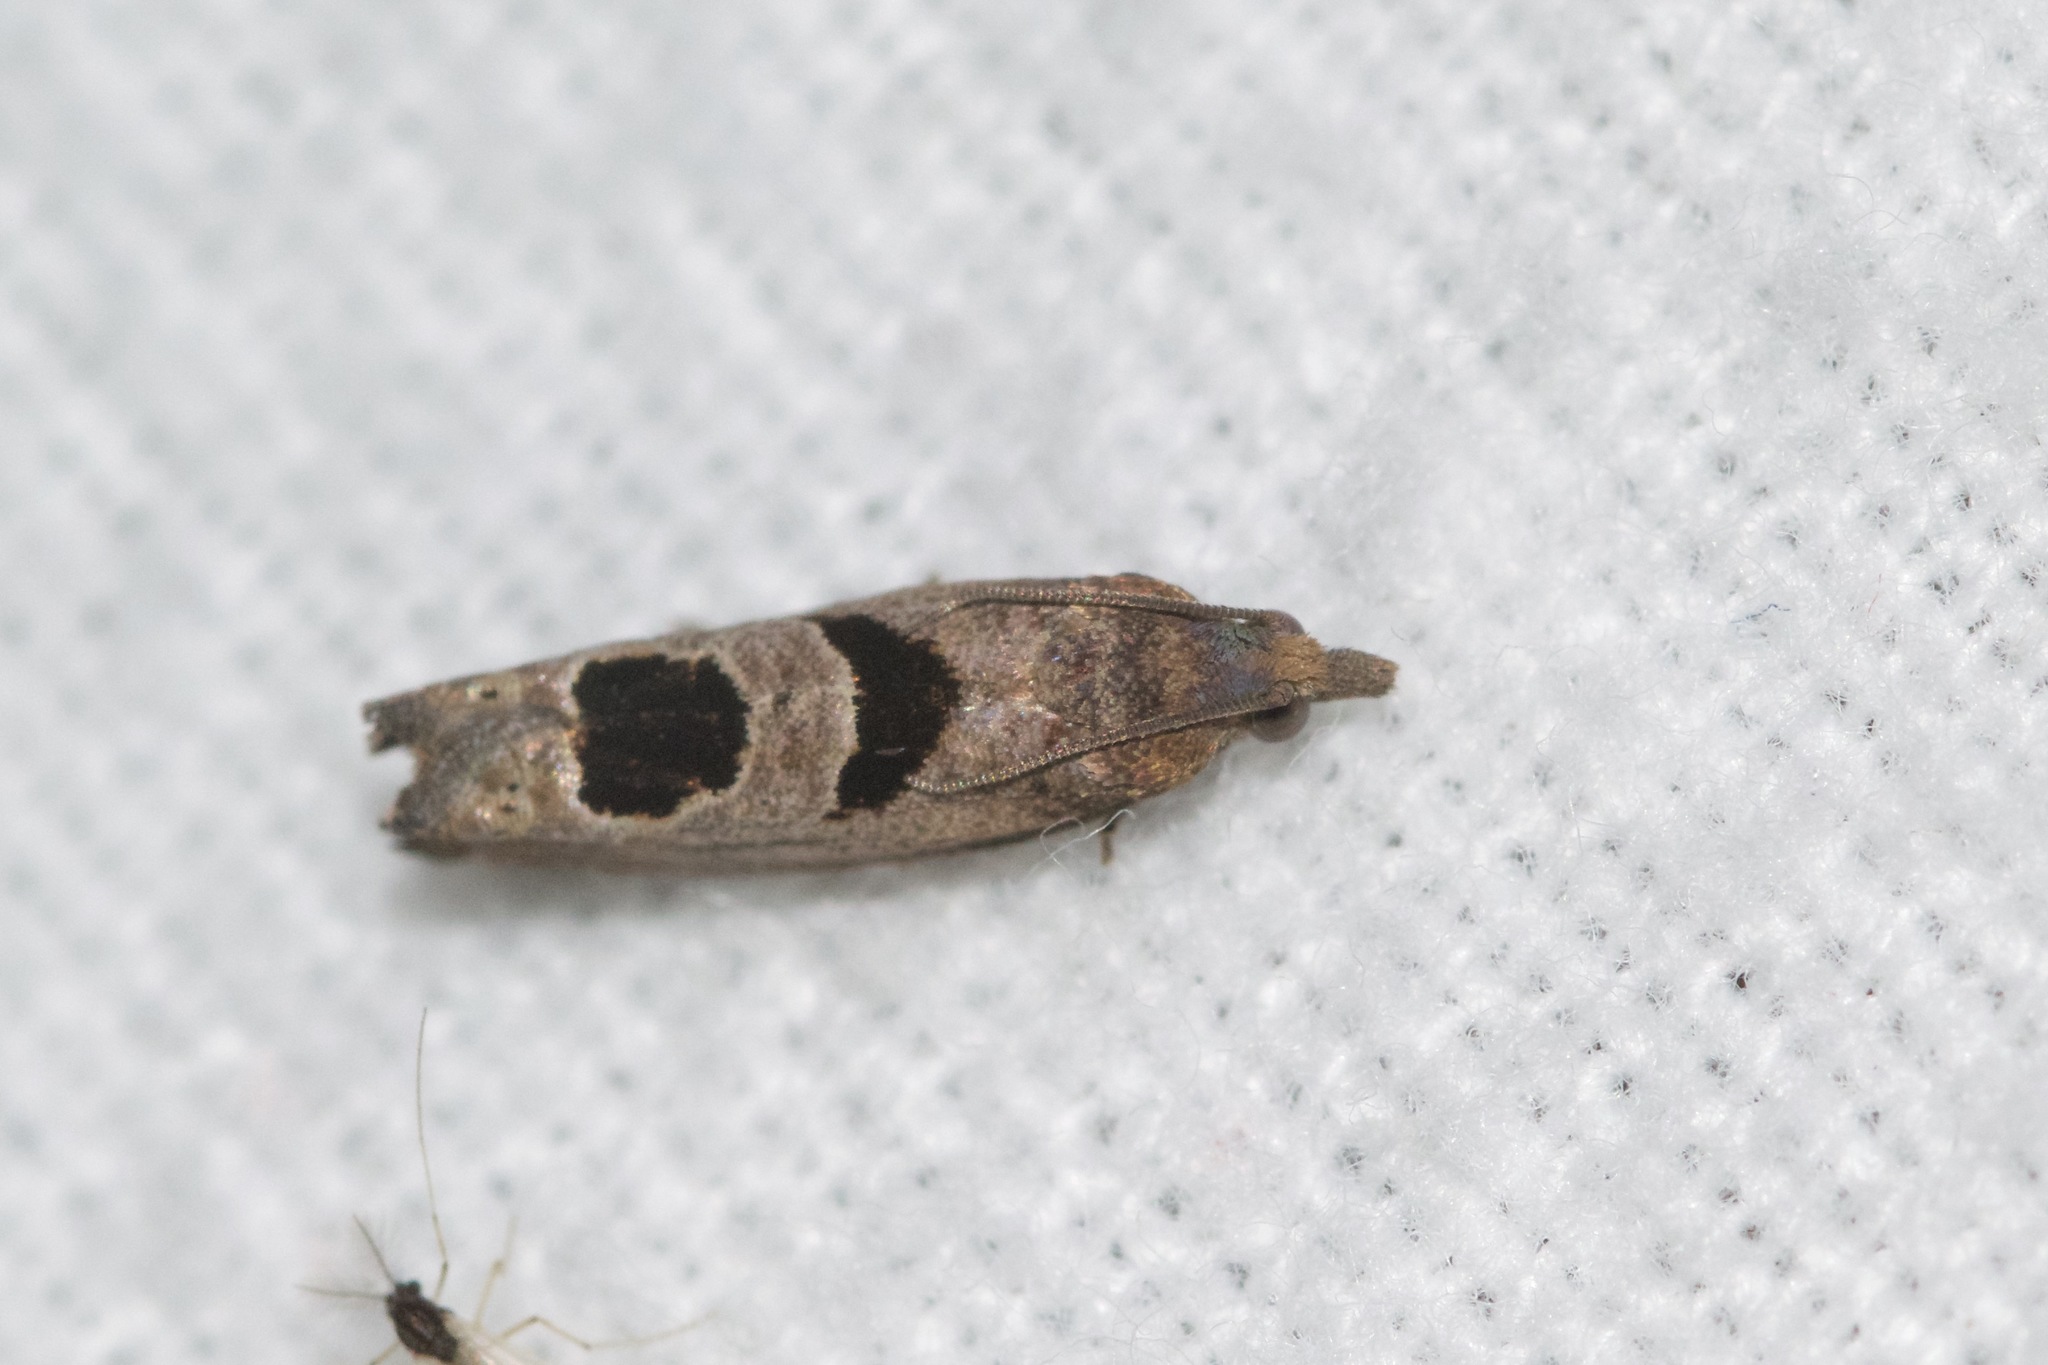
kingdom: Animalia
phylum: Arthropoda
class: Insecta
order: Lepidoptera
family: Tortricidae
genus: Eucosma
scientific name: Eucosma tomonana
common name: Aster-head eucosma moth
